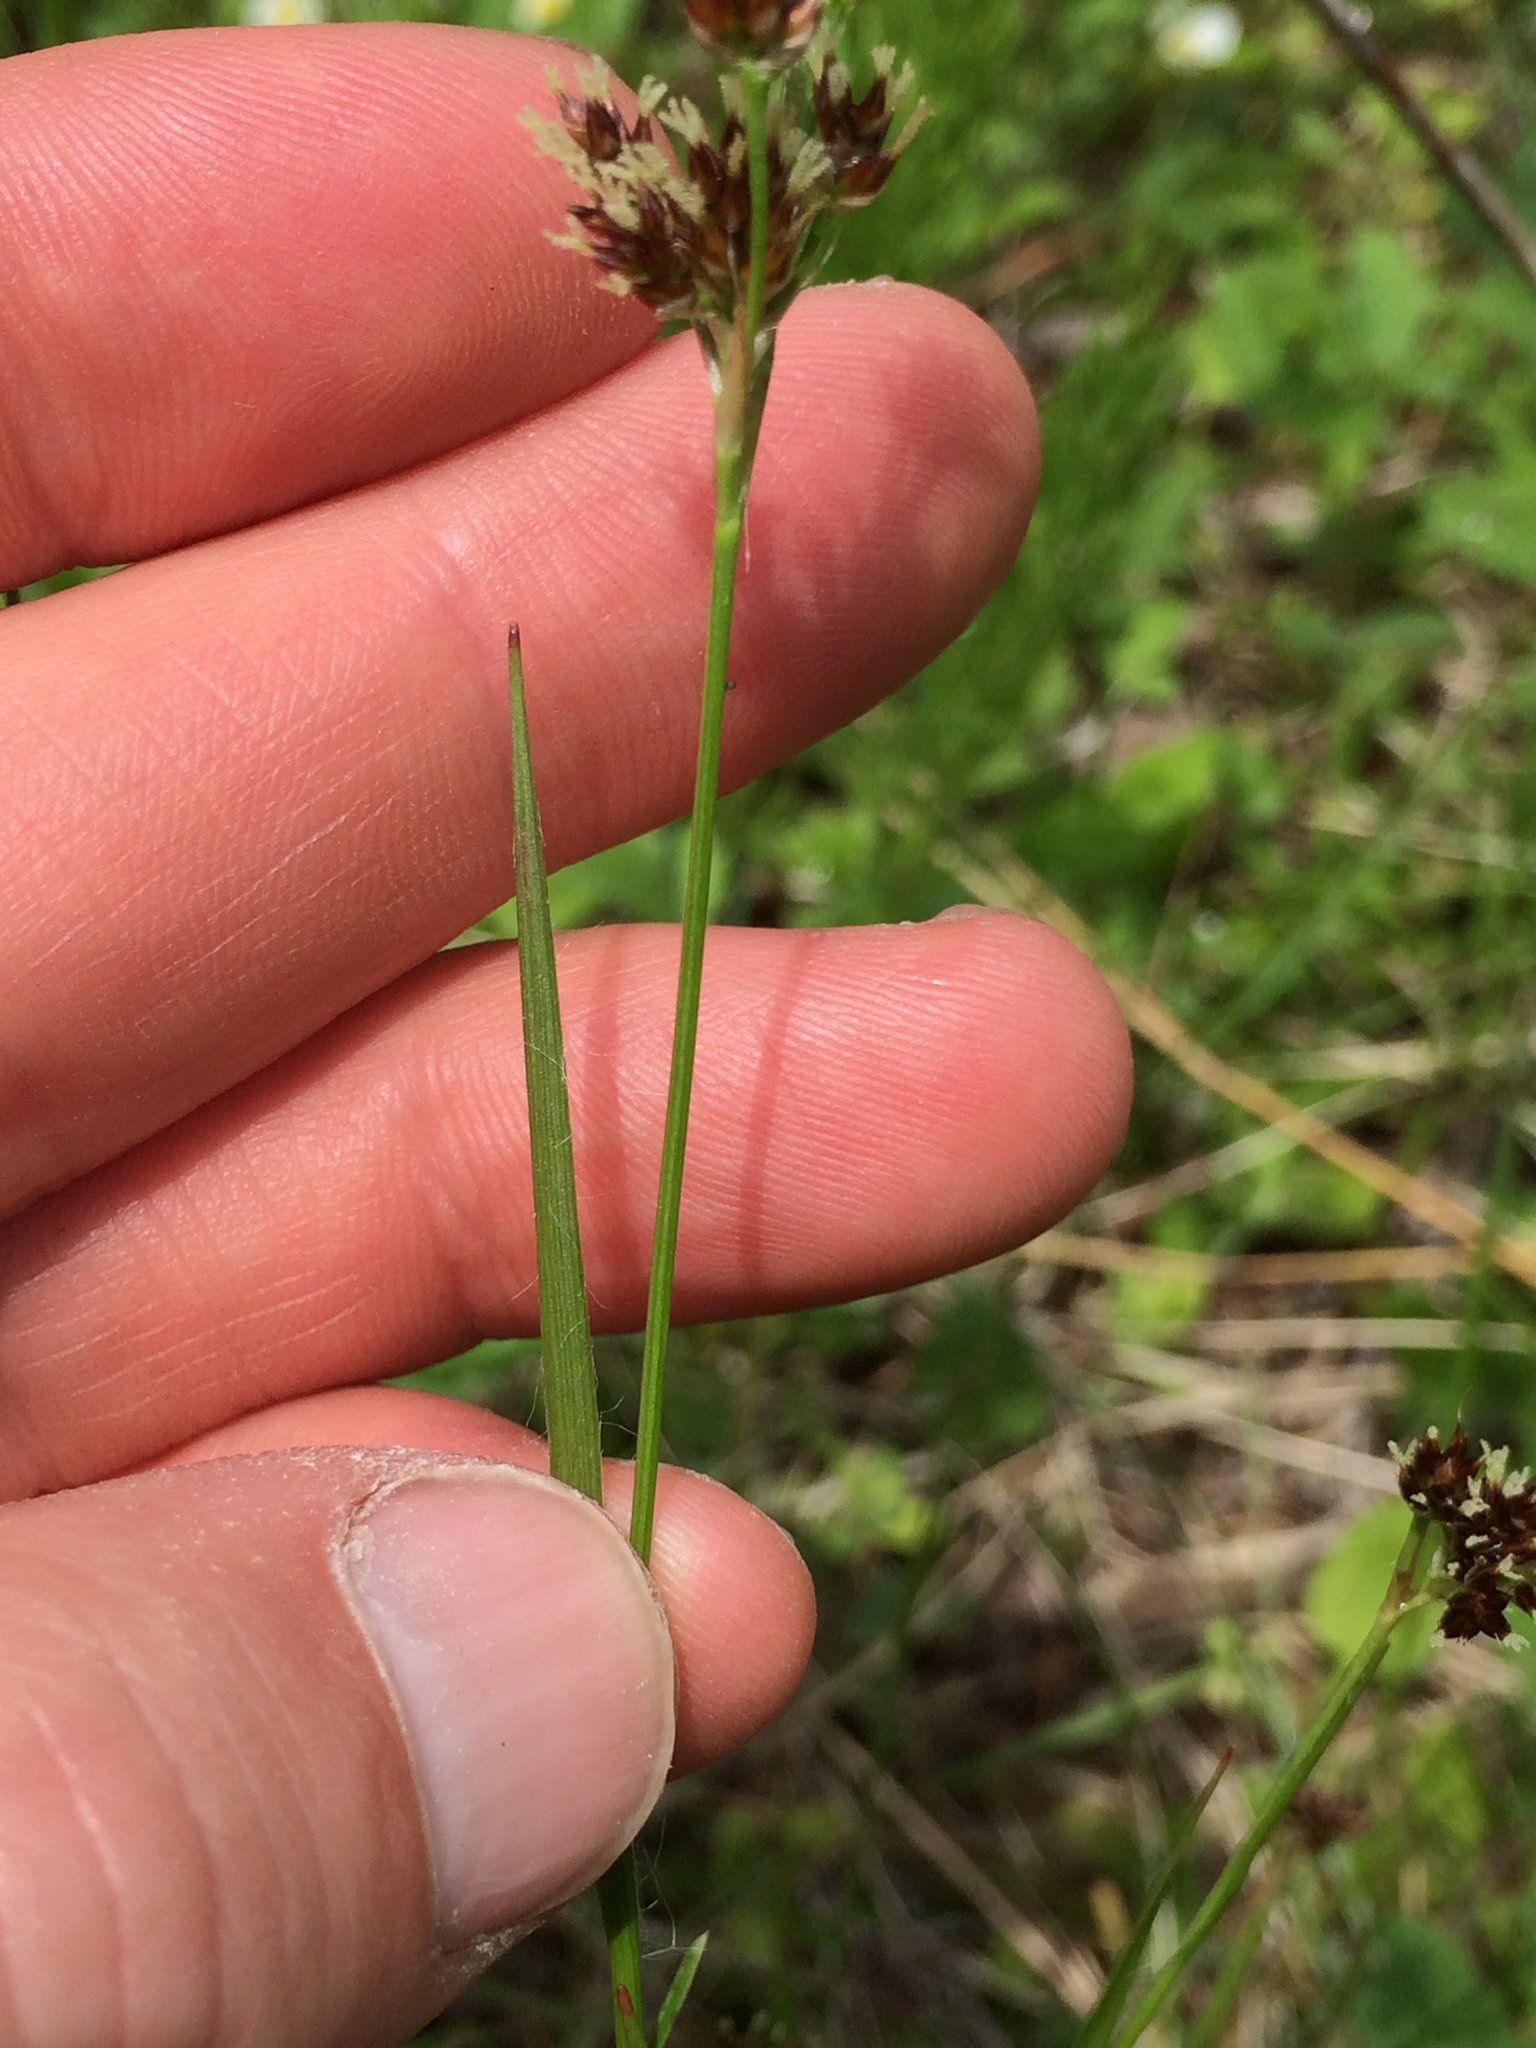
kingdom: Plantae
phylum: Tracheophyta
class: Liliopsida
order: Poales
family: Juncaceae
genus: Luzula
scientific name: Luzula multiflora
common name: Heath wood-rush
